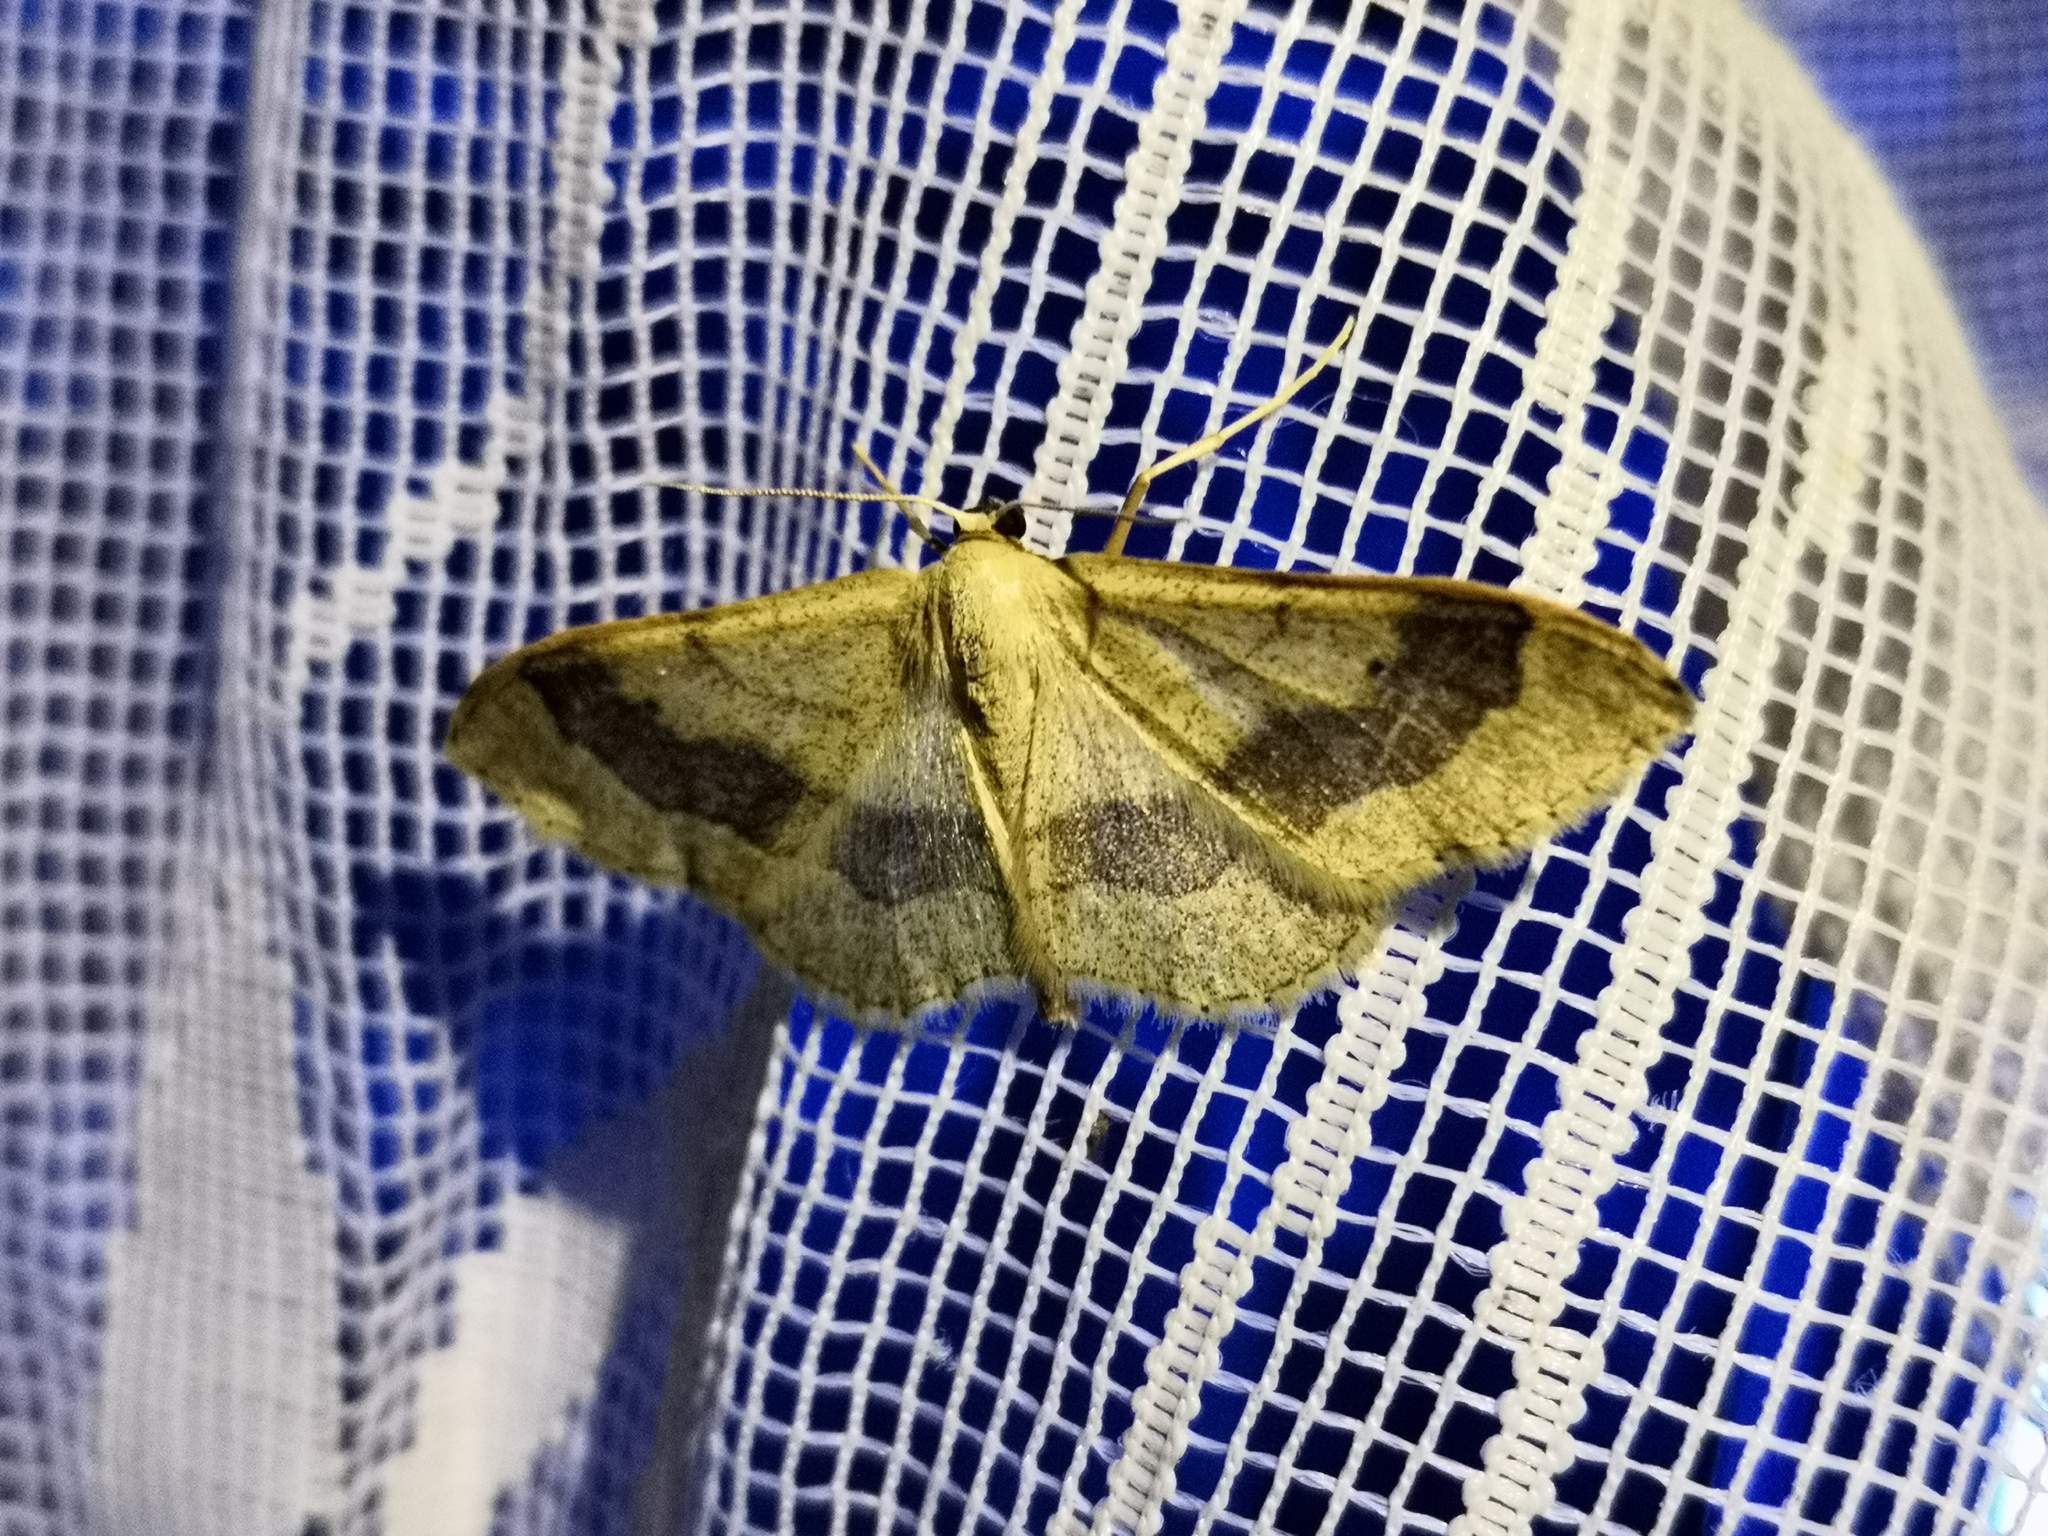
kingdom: Animalia
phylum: Arthropoda
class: Insecta
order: Lepidoptera
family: Geometridae
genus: Idaea
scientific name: Idaea aversata
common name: Riband wave
